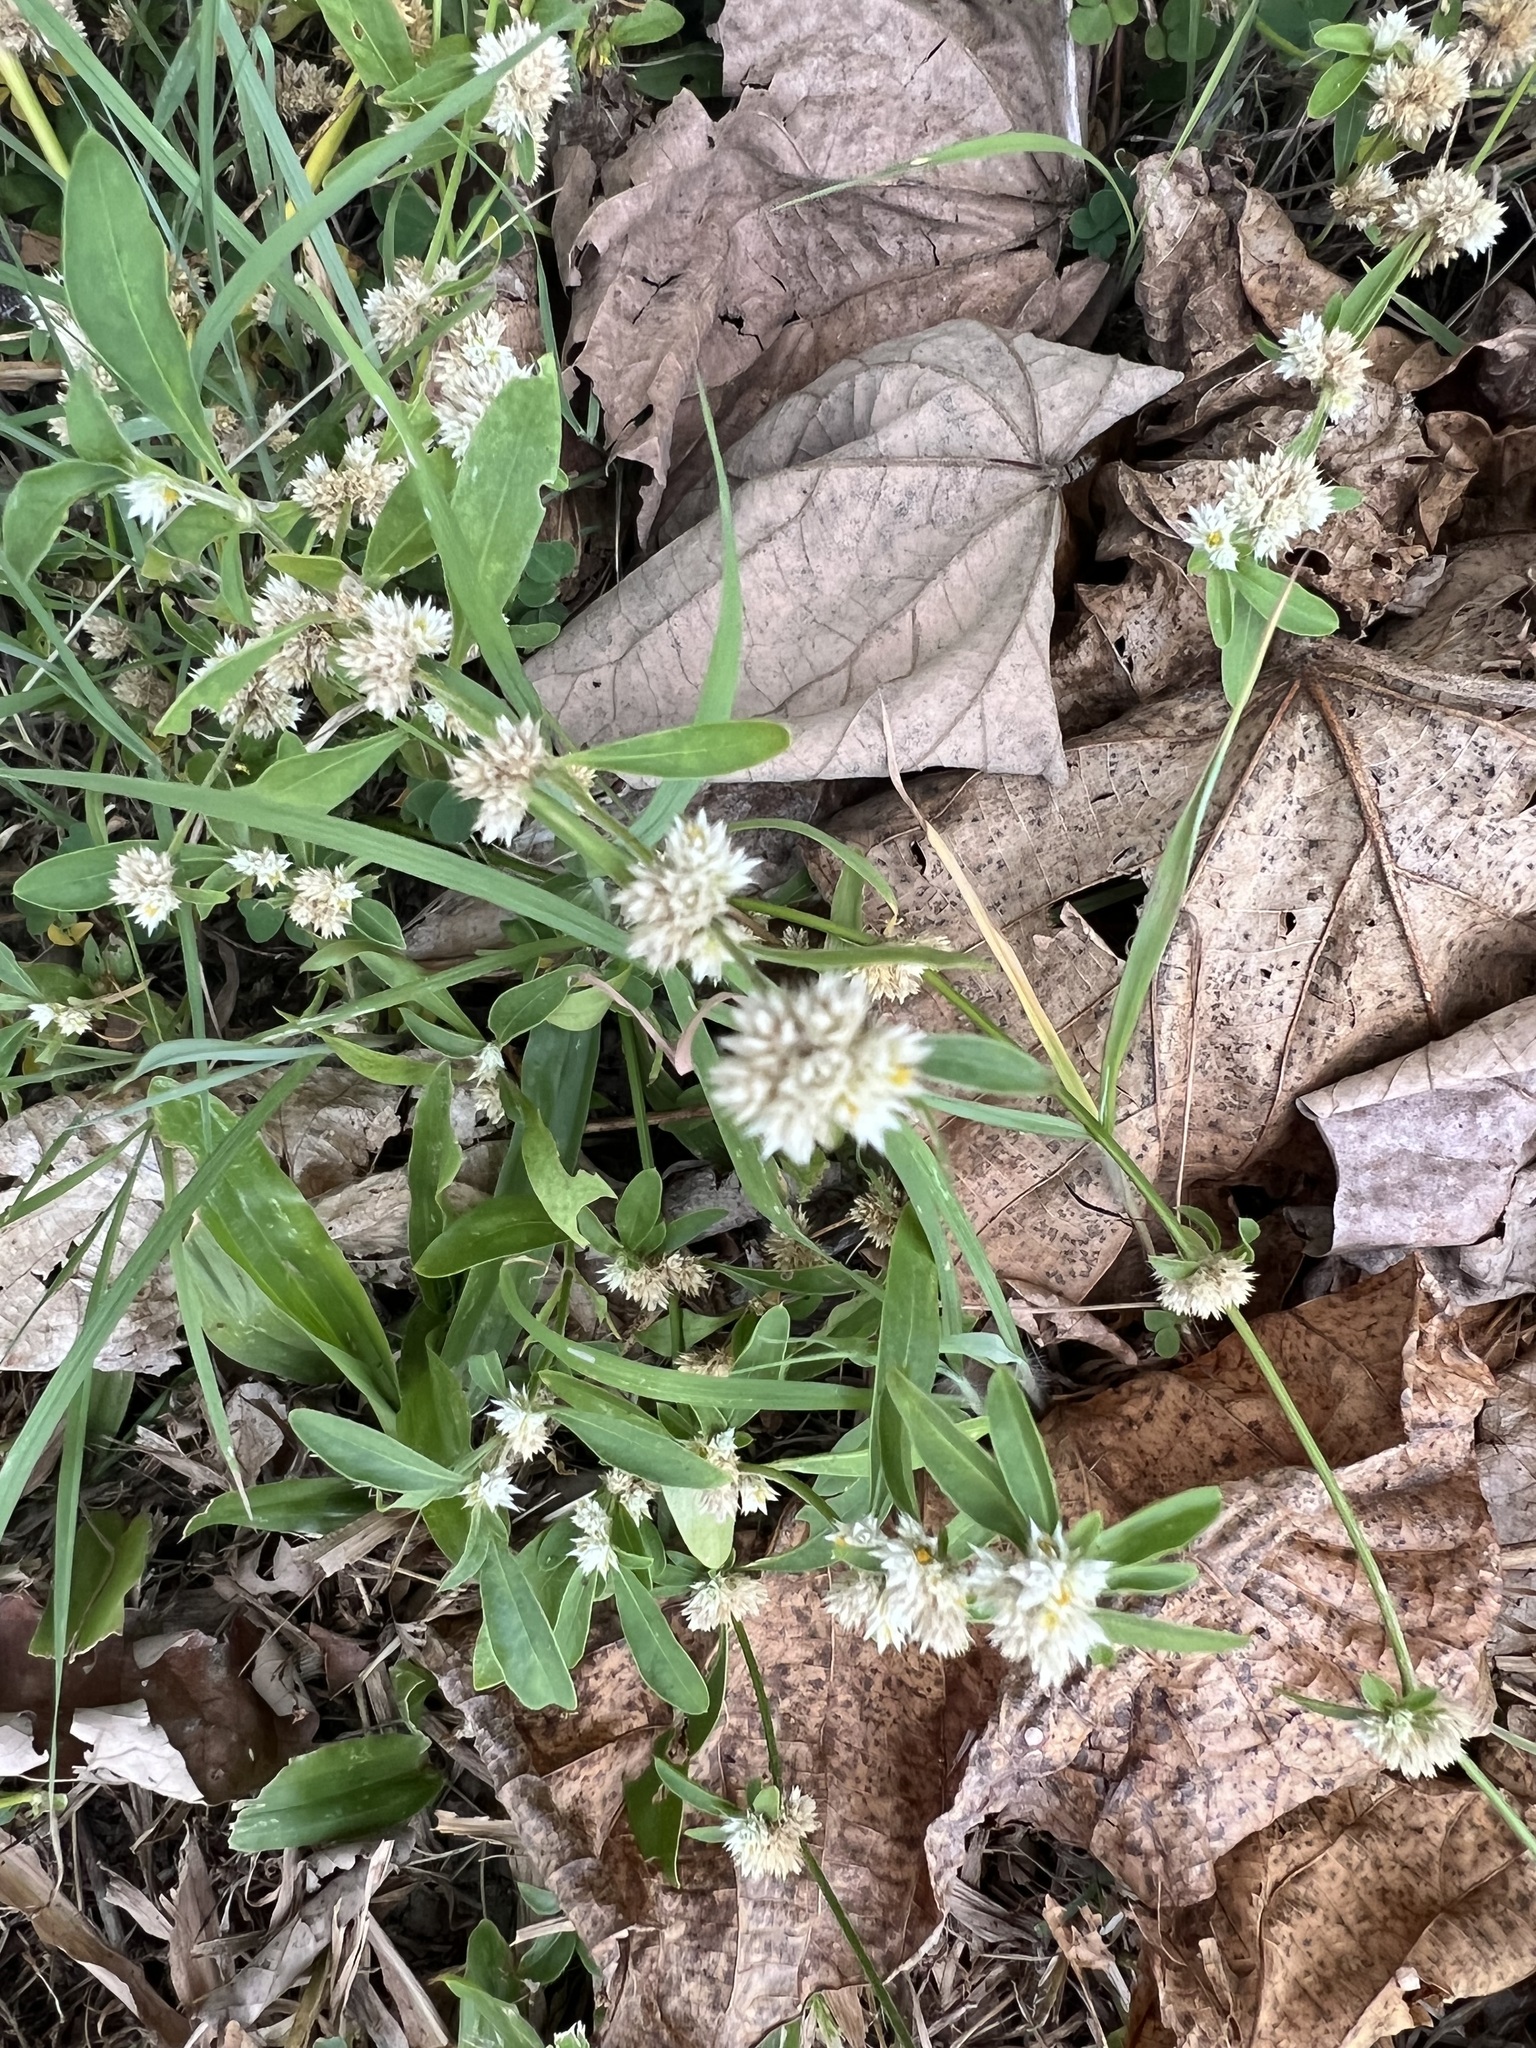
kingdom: Plantae
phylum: Tracheophyta
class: Magnoliopsida
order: Caryophyllales
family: Amaranthaceae
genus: Alternanthera
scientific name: Alternanthera ficoidea
